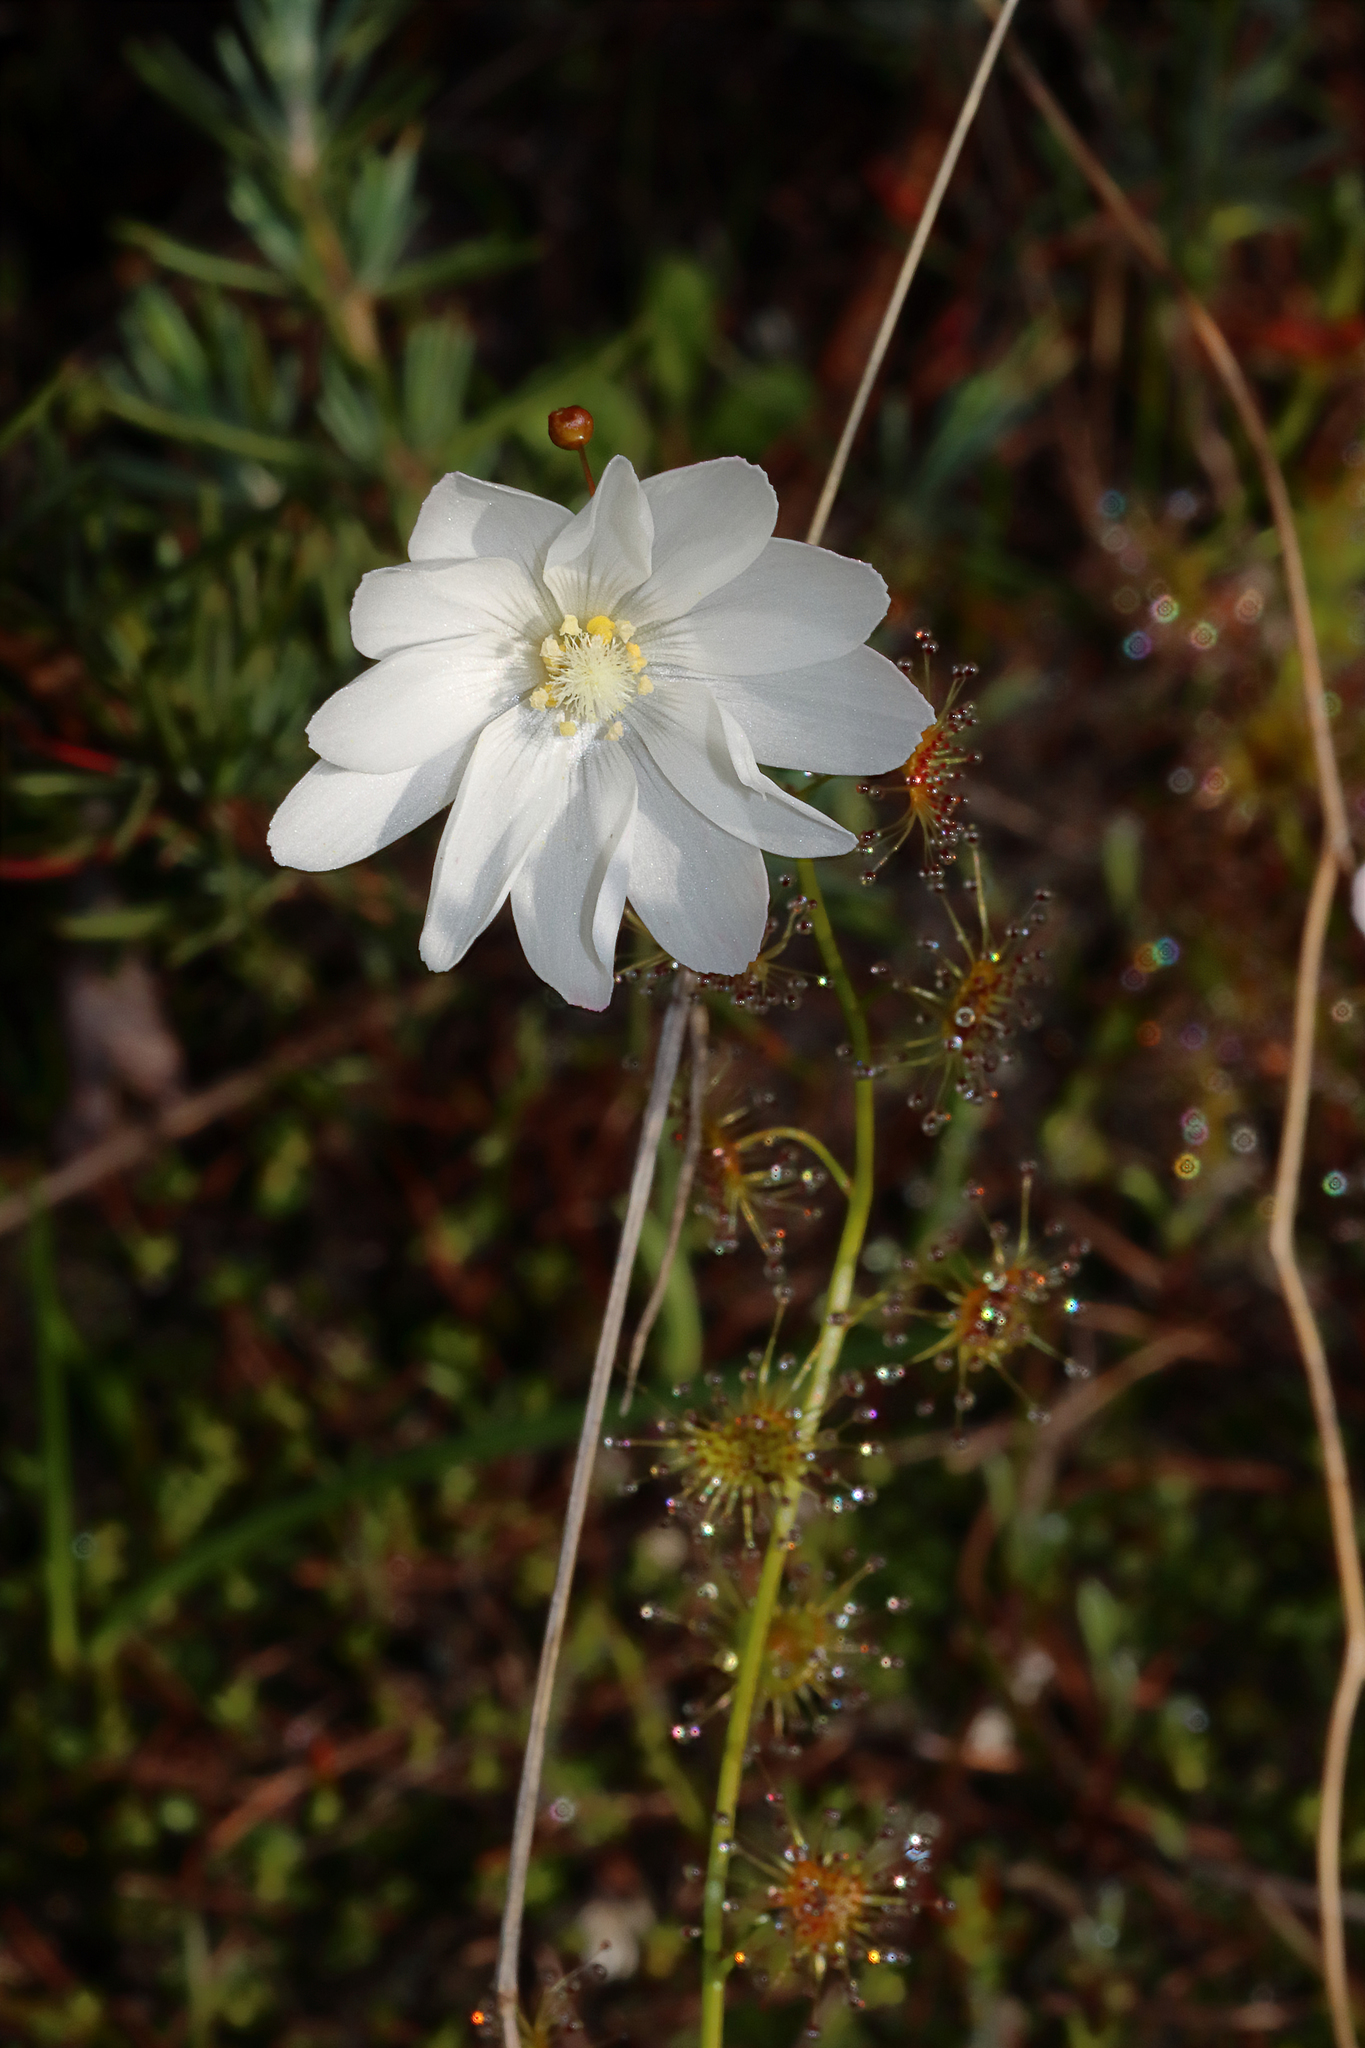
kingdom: Plantae
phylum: Tracheophyta
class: Magnoliopsida
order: Caryophyllales
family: Droseraceae
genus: Drosera
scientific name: Drosera heterophylla
